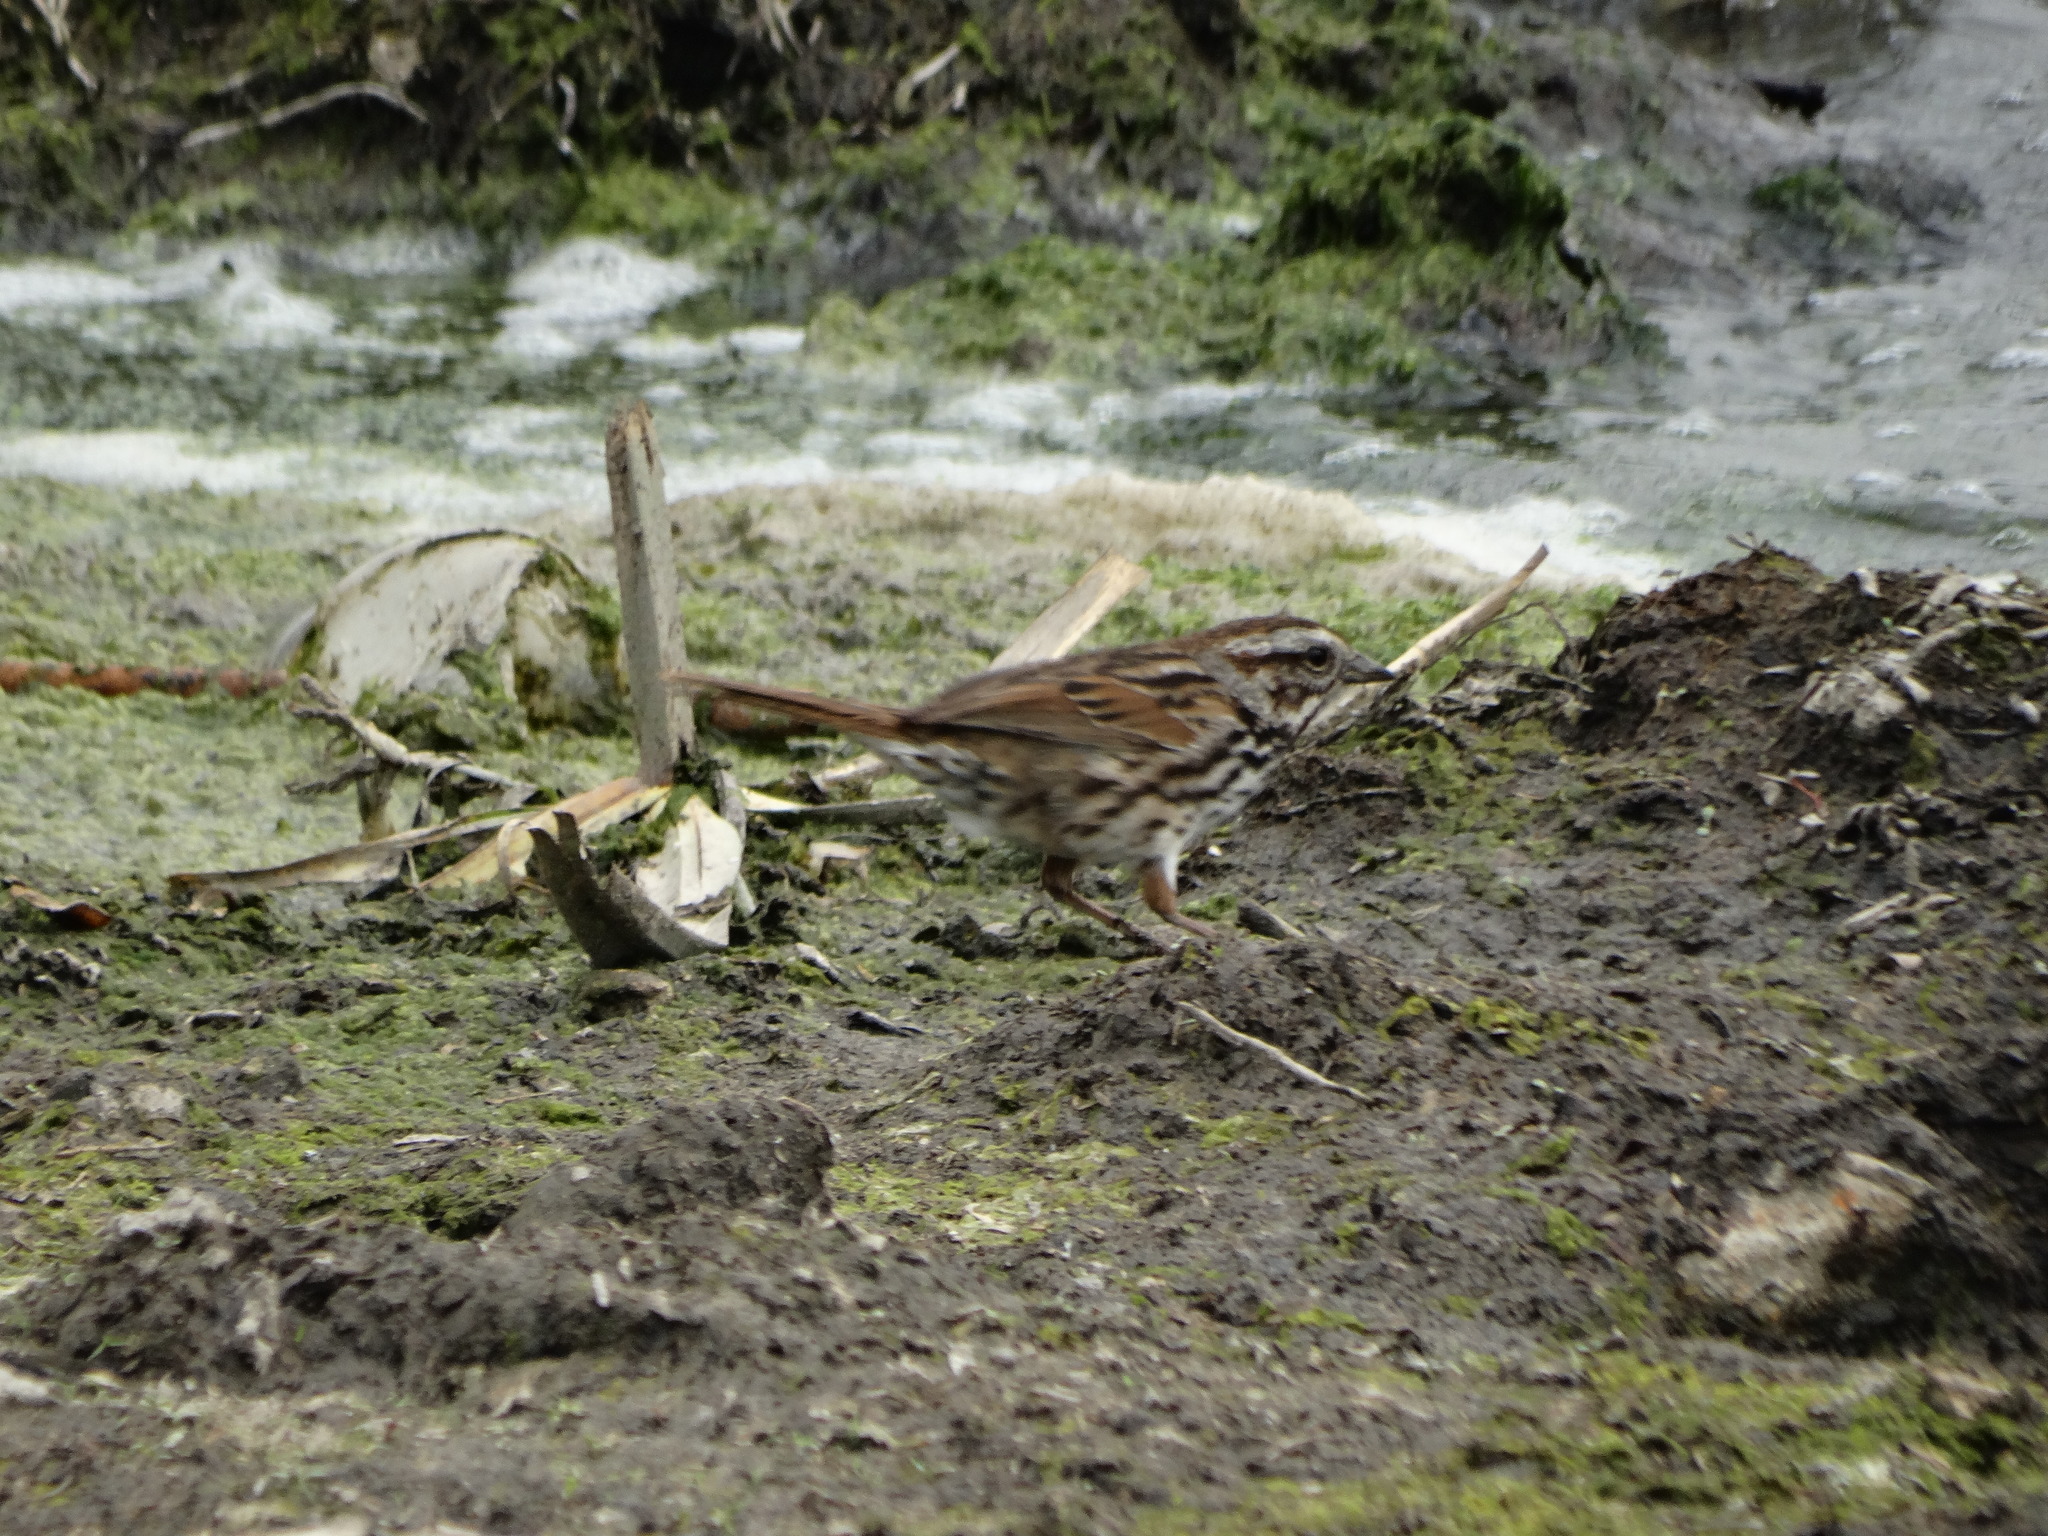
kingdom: Animalia
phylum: Chordata
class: Aves
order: Passeriformes
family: Passerellidae
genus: Melospiza
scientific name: Melospiza melodia
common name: Song sparrow
